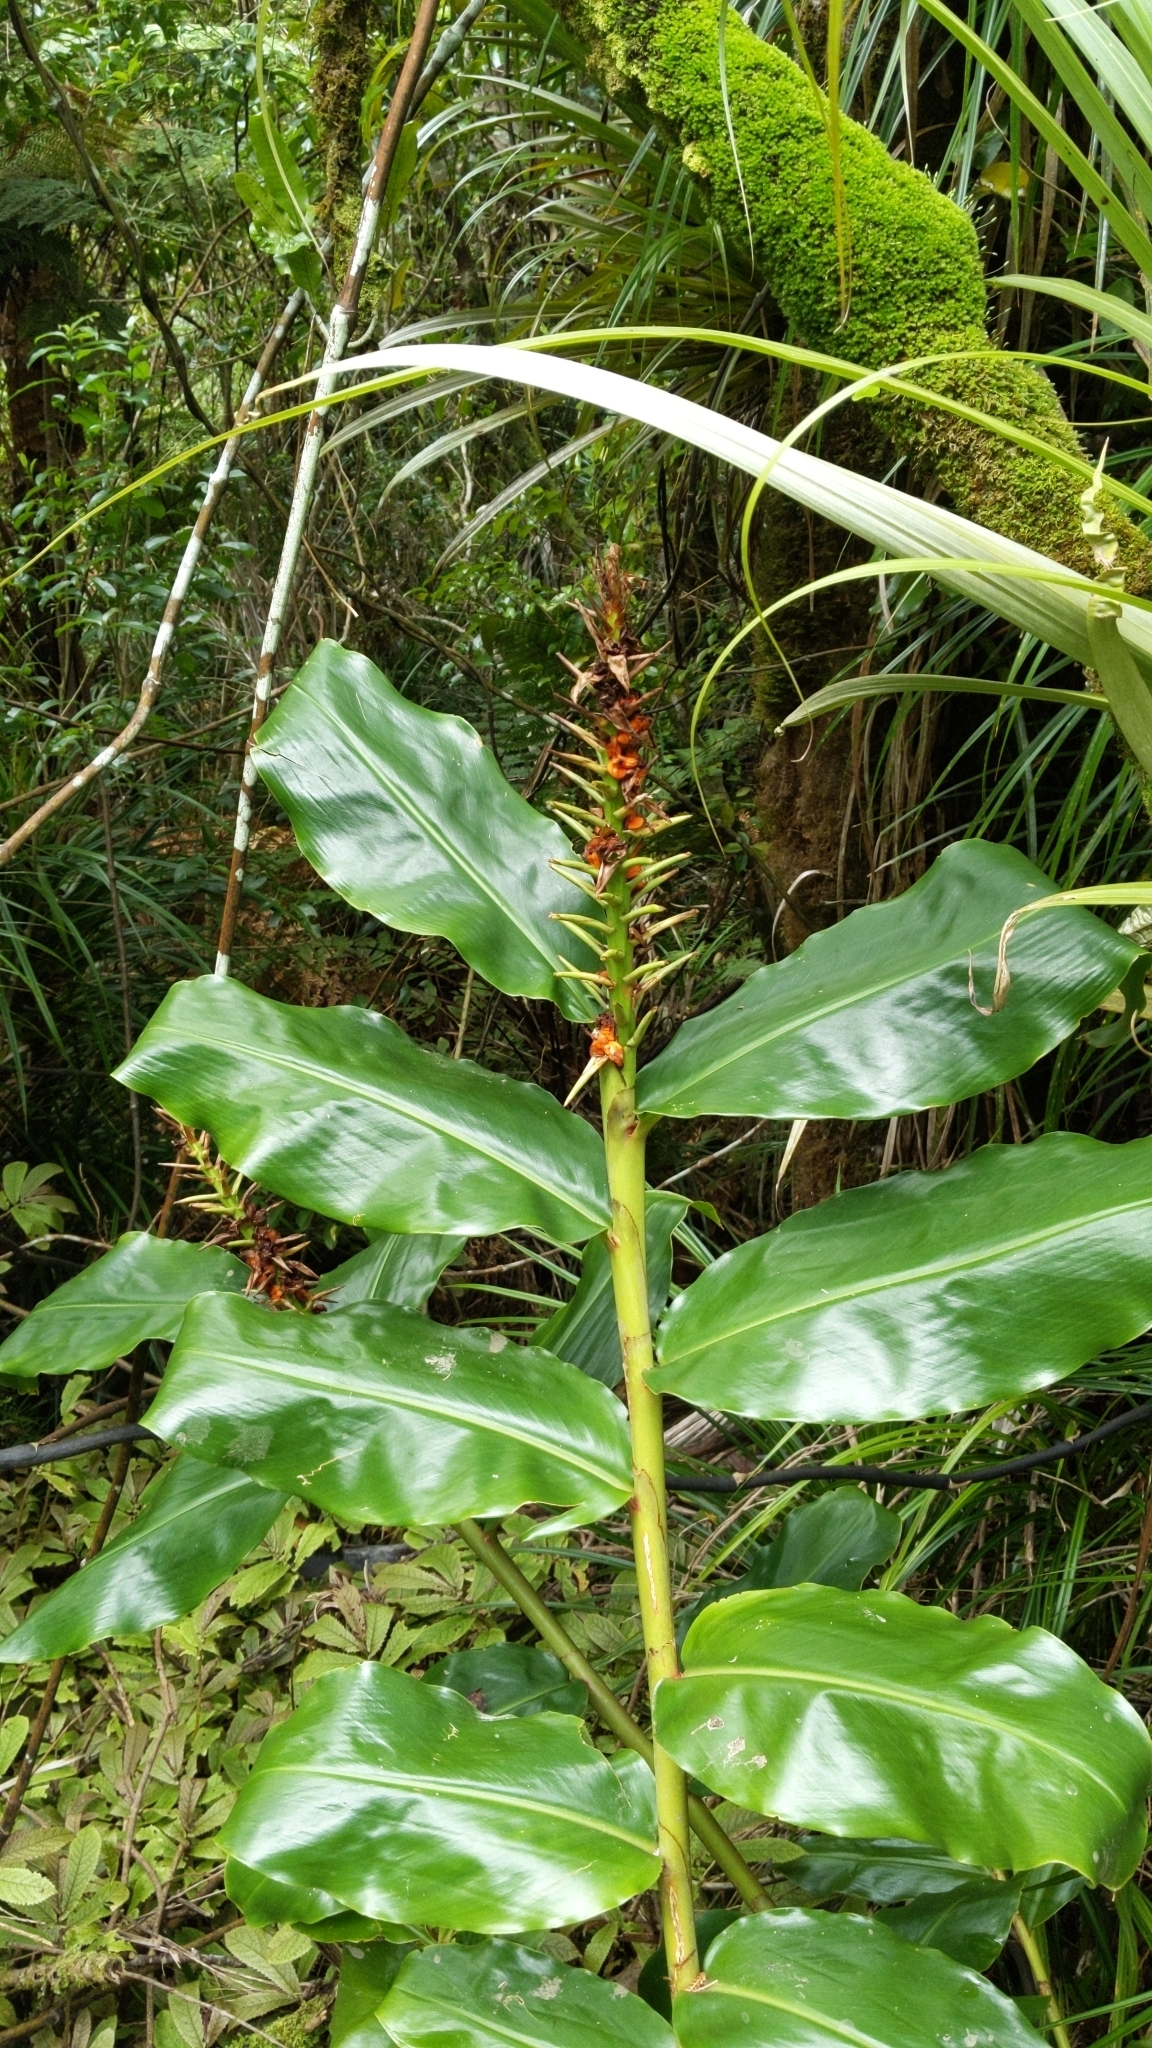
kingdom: Plantae
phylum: Tracheophyta
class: Liliopsida
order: Zingiberales
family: Zingiberaceae
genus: Hedychium
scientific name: Hedychium gardnerianum
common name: Himalayan ginger
